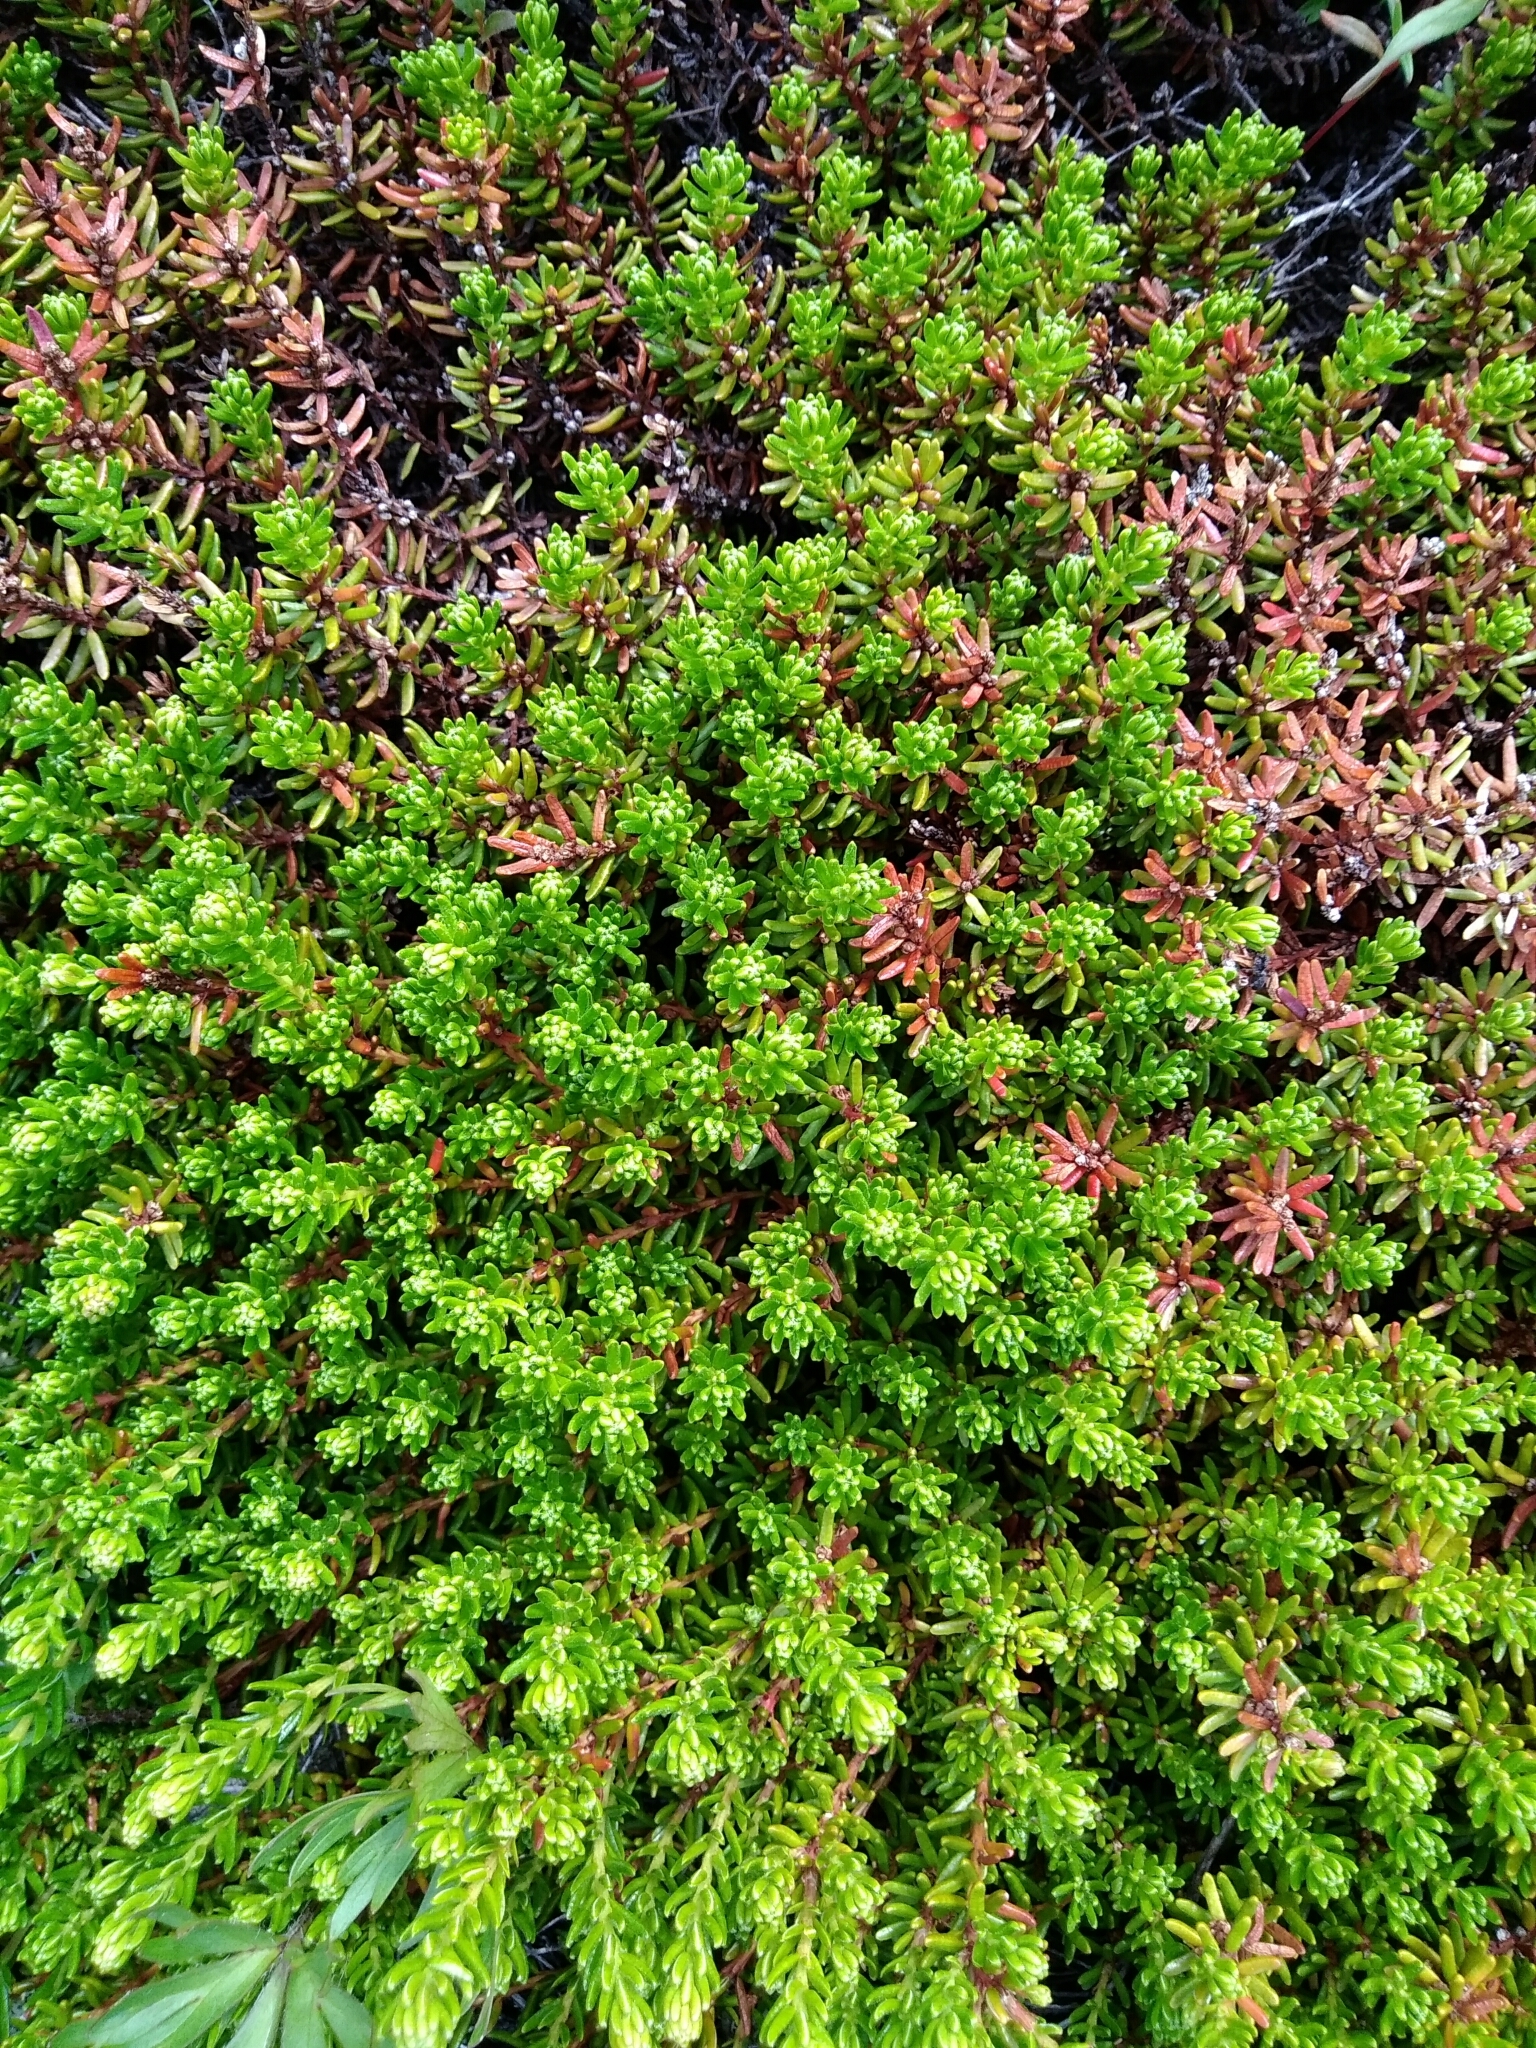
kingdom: Plantae
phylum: Tracheophyta
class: Magnoliopsida
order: Ericales
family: Ericaceae
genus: Empetrum
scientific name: Empetrum nigrum
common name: Black crowberry
